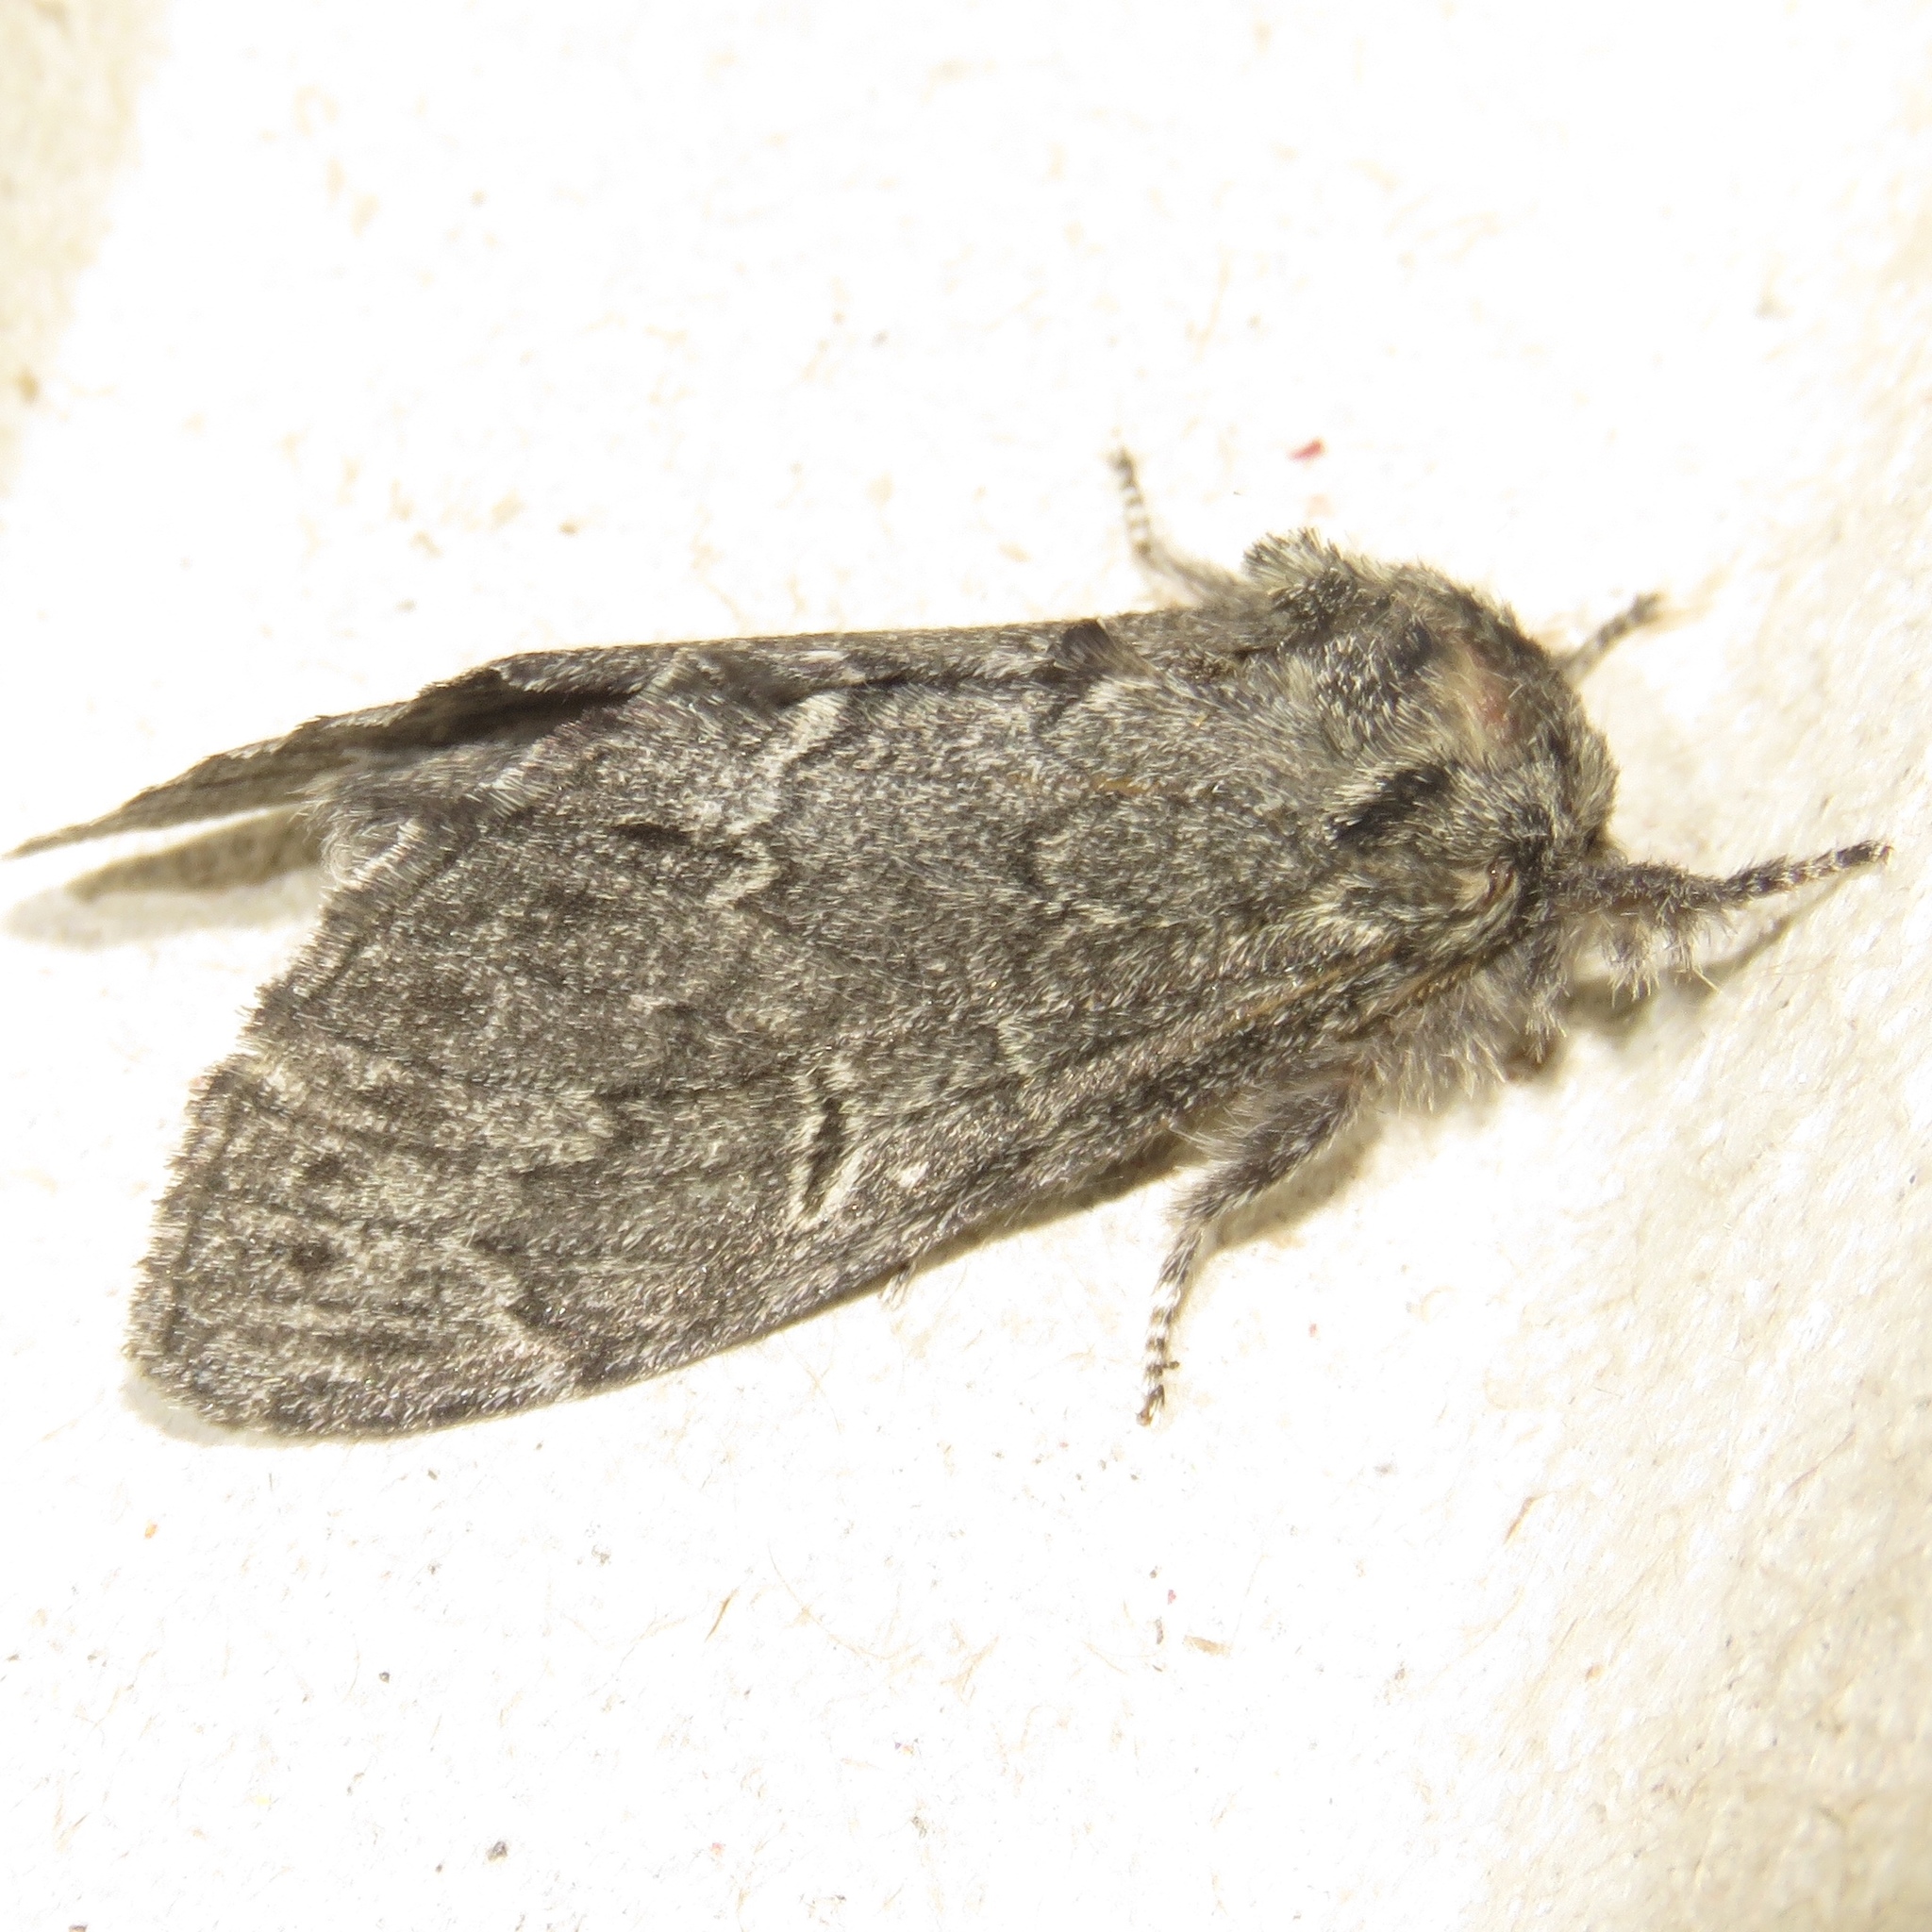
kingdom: Animalia
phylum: Arthropoda
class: Insecta
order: Lepidoptera
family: Notodontidae
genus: Notodonta
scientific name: Notodonta torva
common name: Large dark prominent
